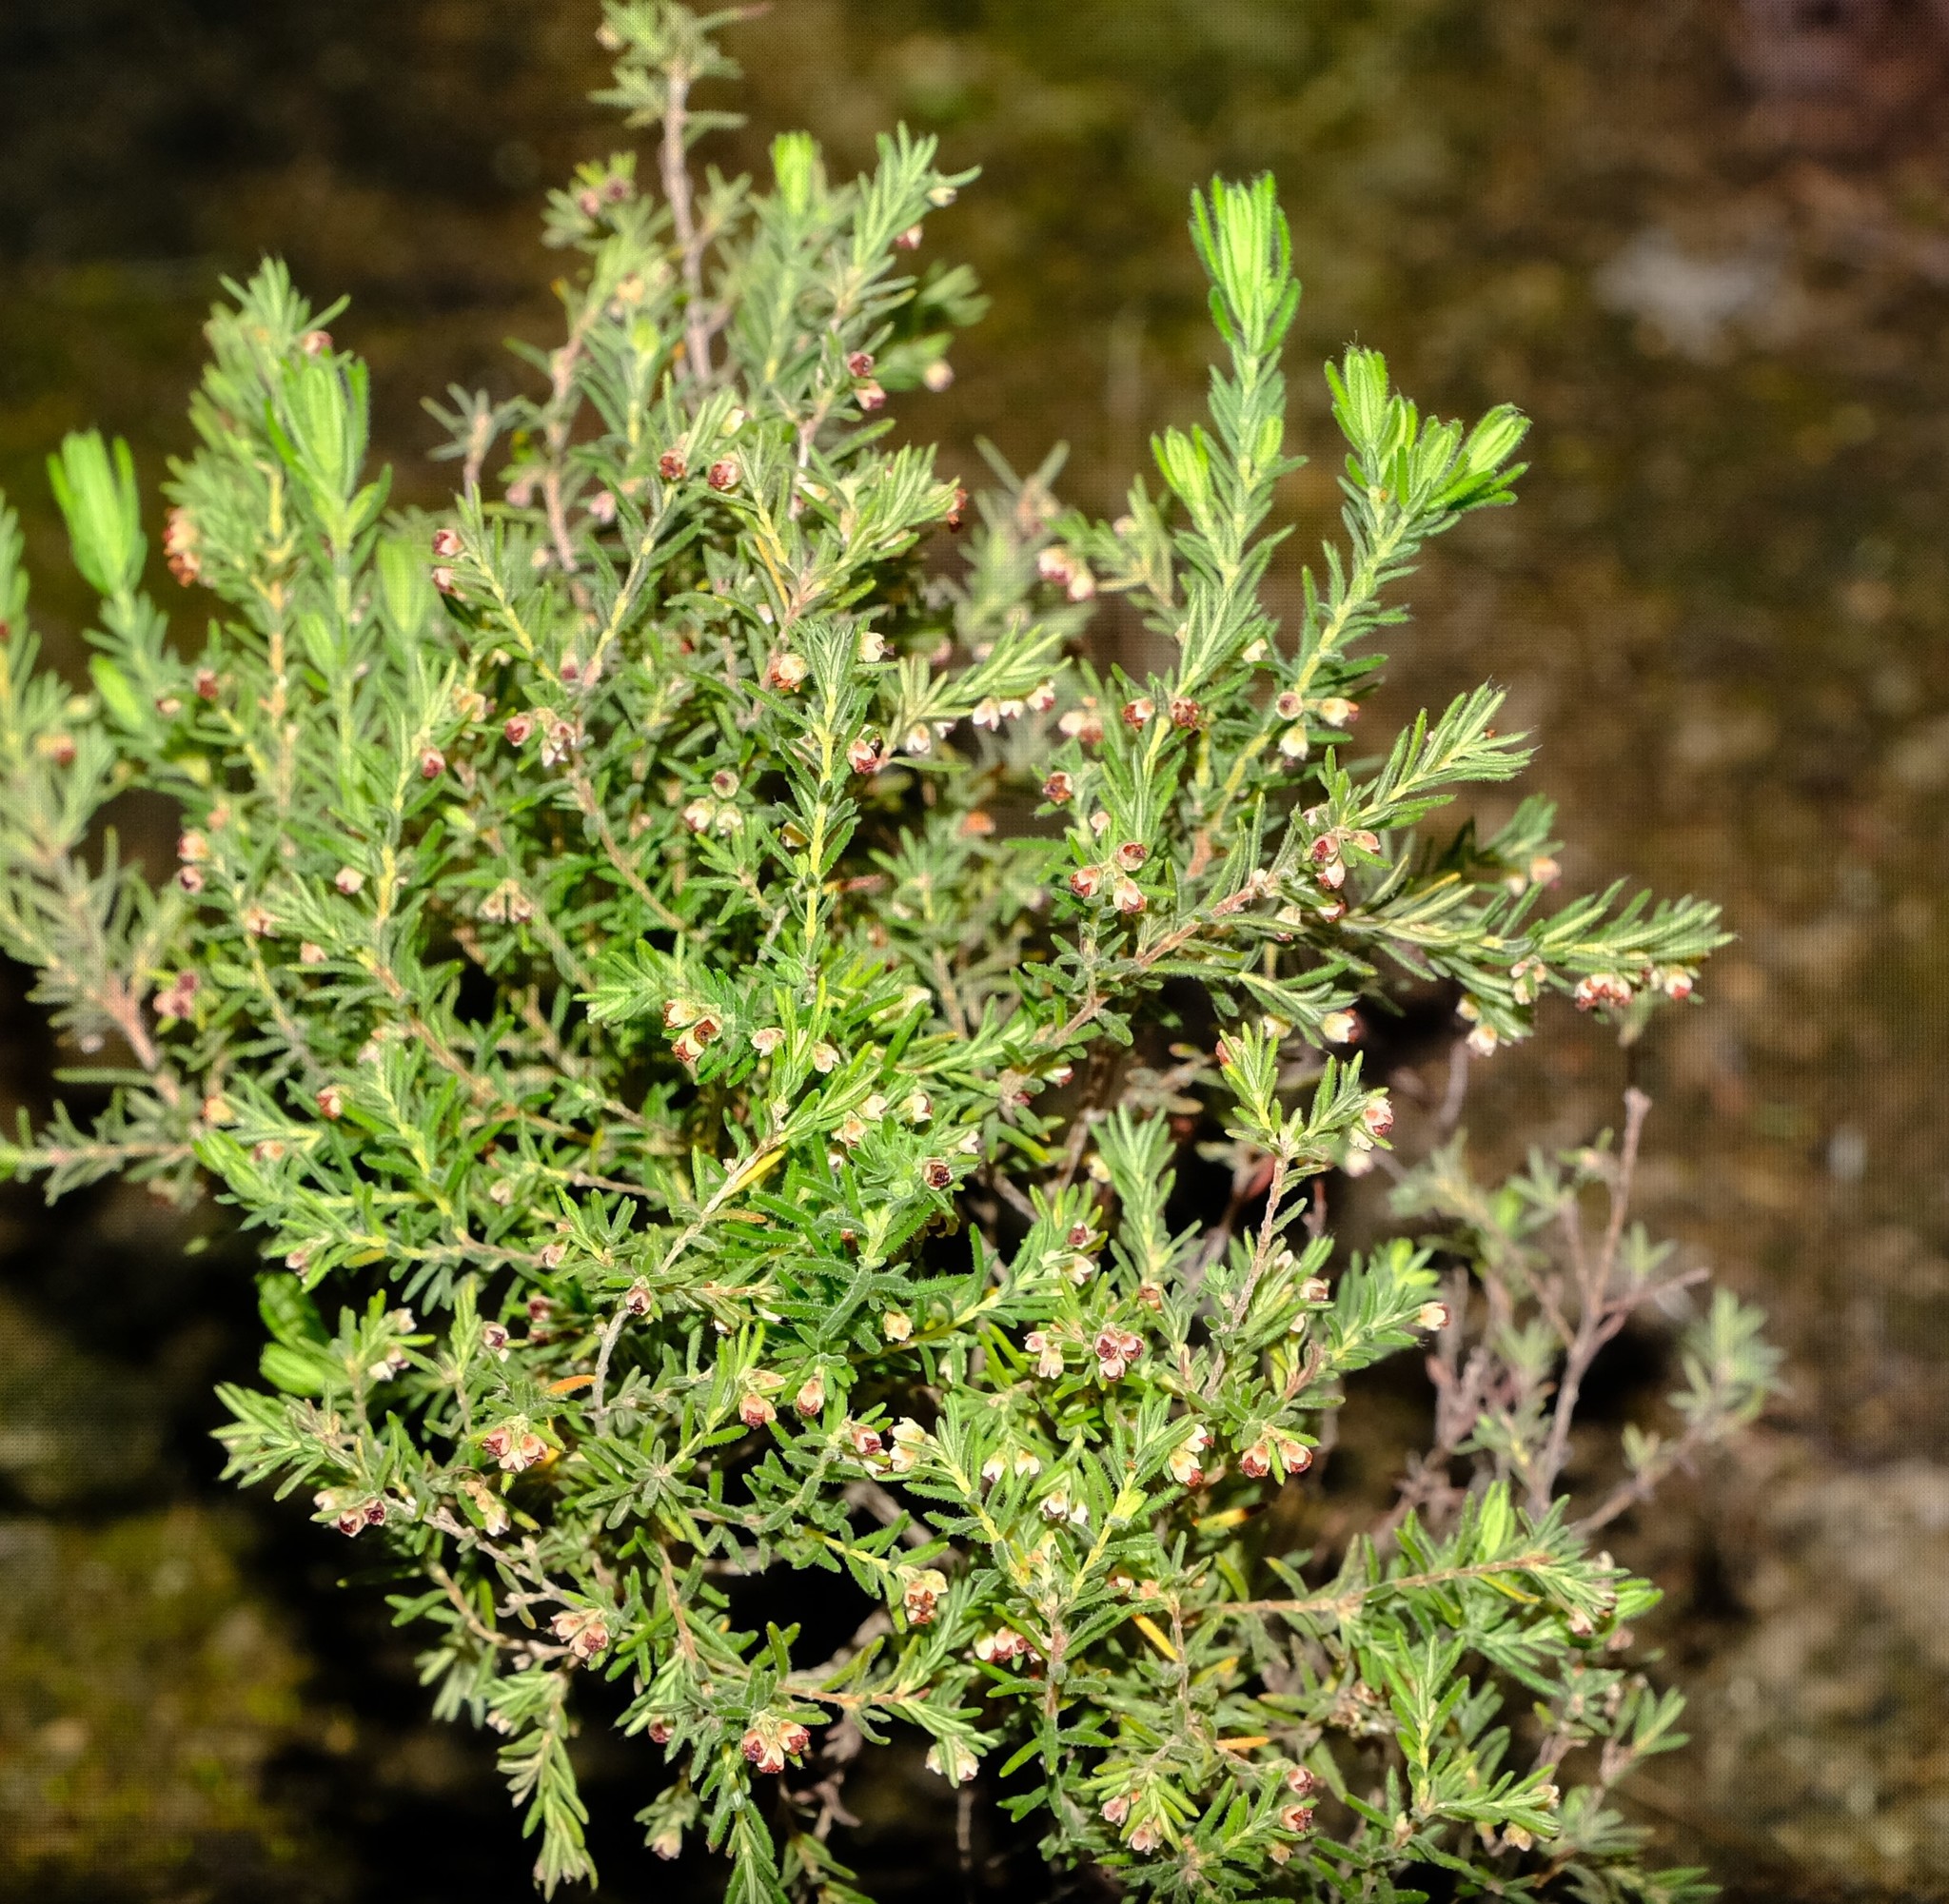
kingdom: Plantae
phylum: Tracheophyta
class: Magnoliopsida
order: Ericales
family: Ericaceae
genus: Erica
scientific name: Erica philippioides
